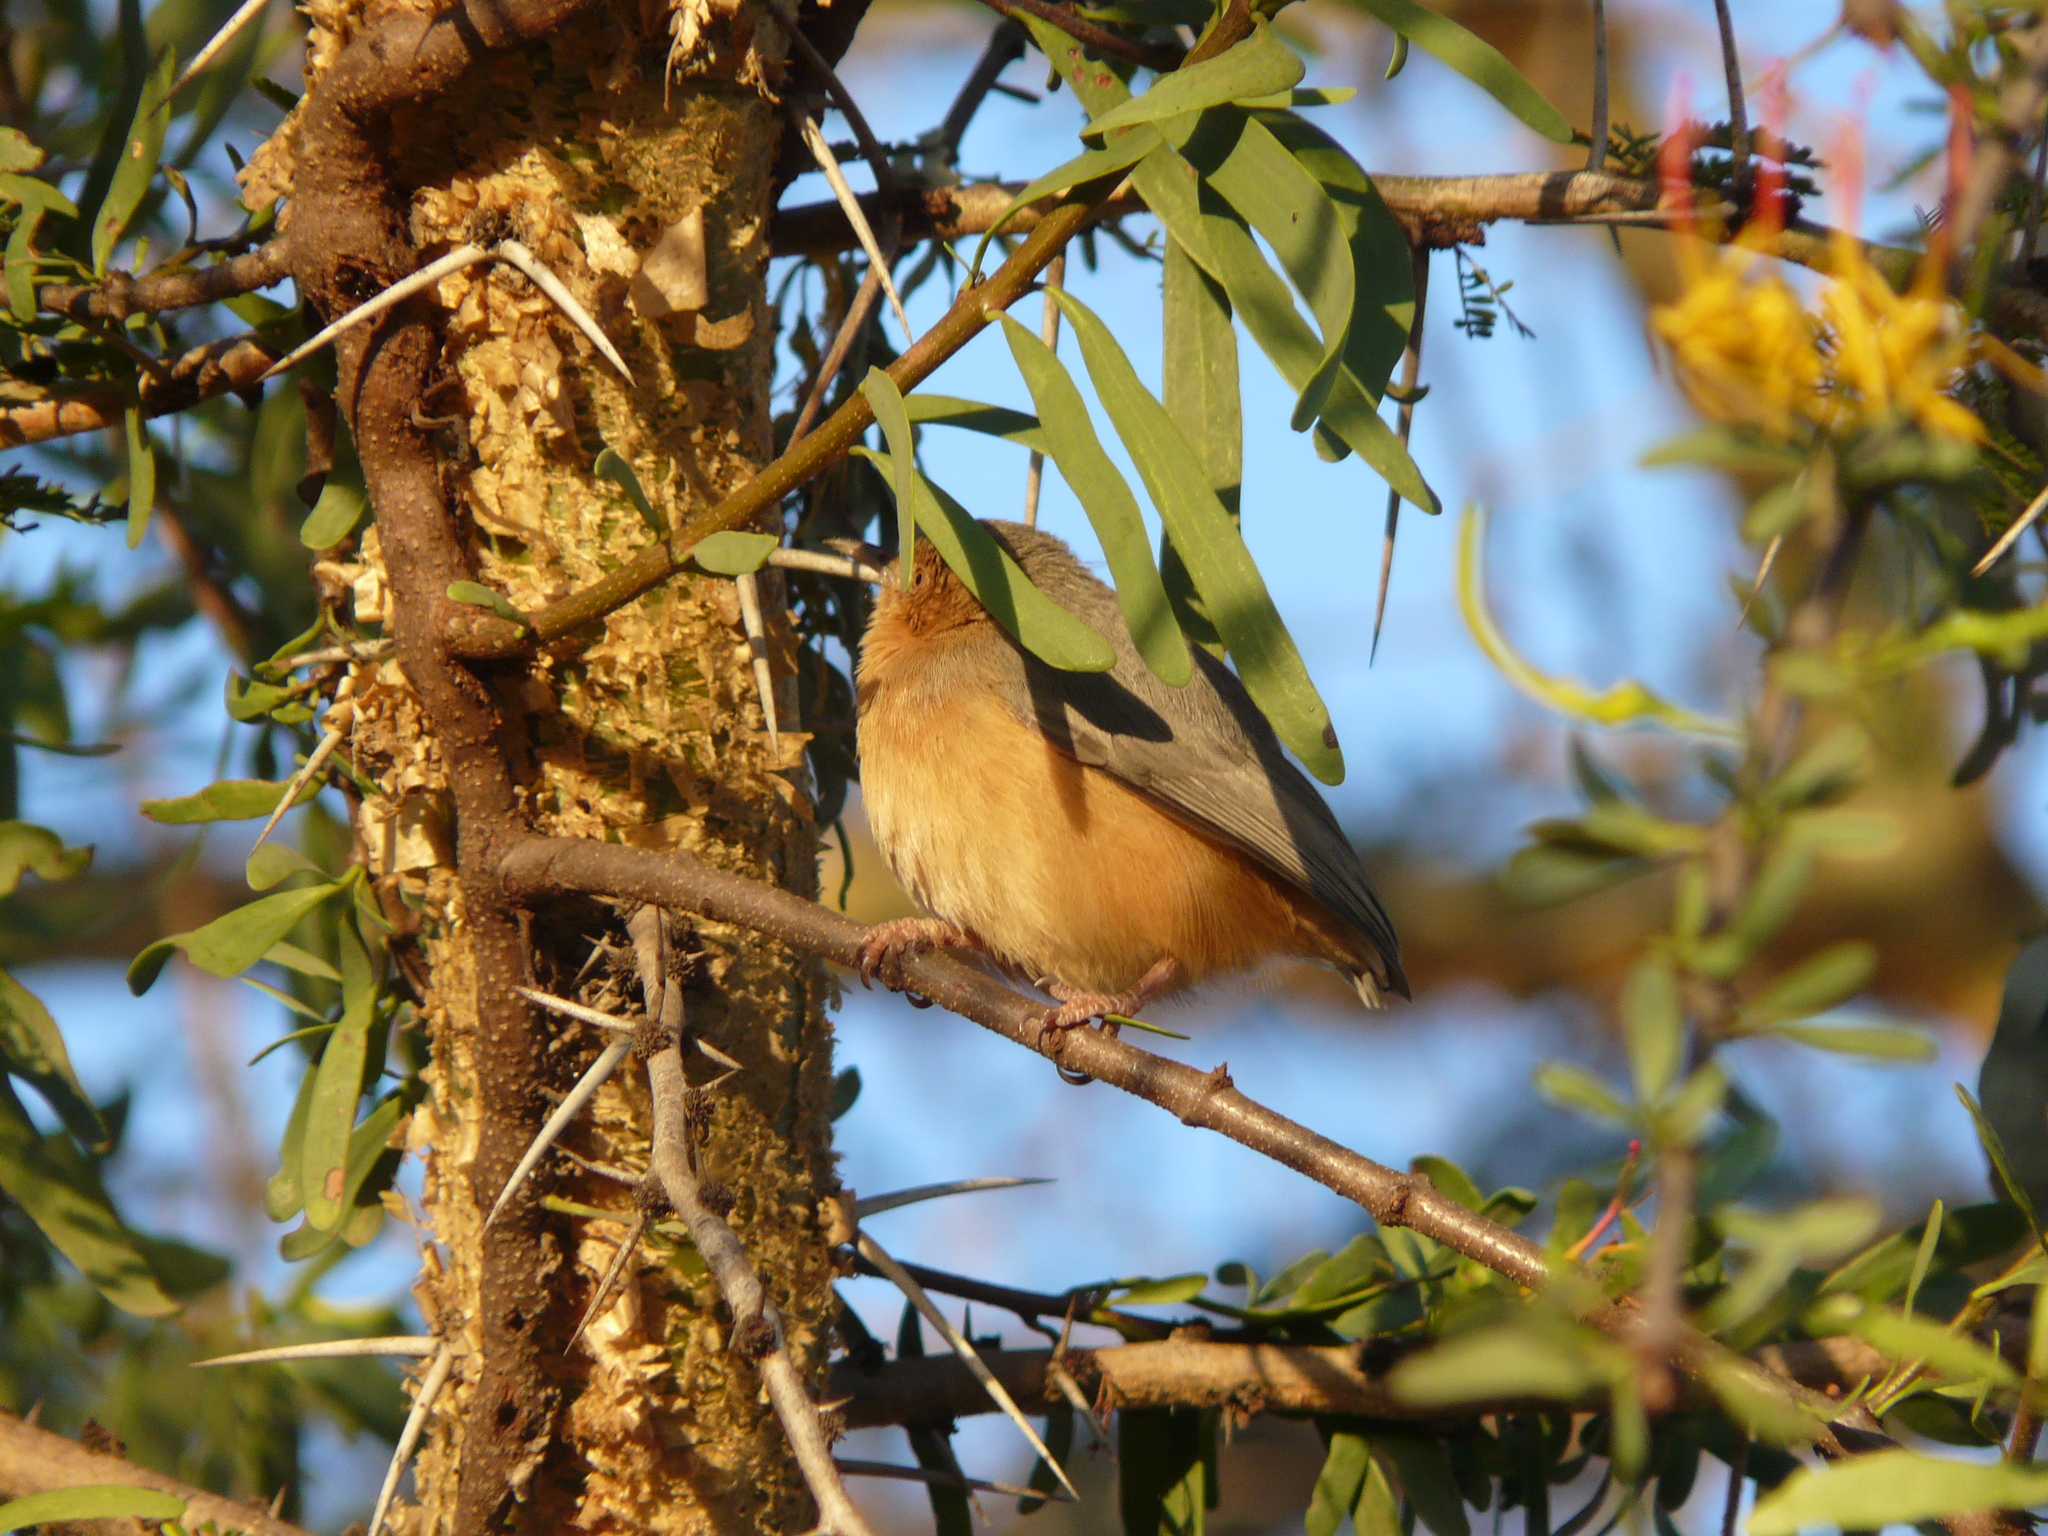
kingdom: Animalia
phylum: Chordata
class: Aves
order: Passeriformes
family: Macrosphenidae
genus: Sylvietta
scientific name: Sylvietta whytii
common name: Red-faced crombec
